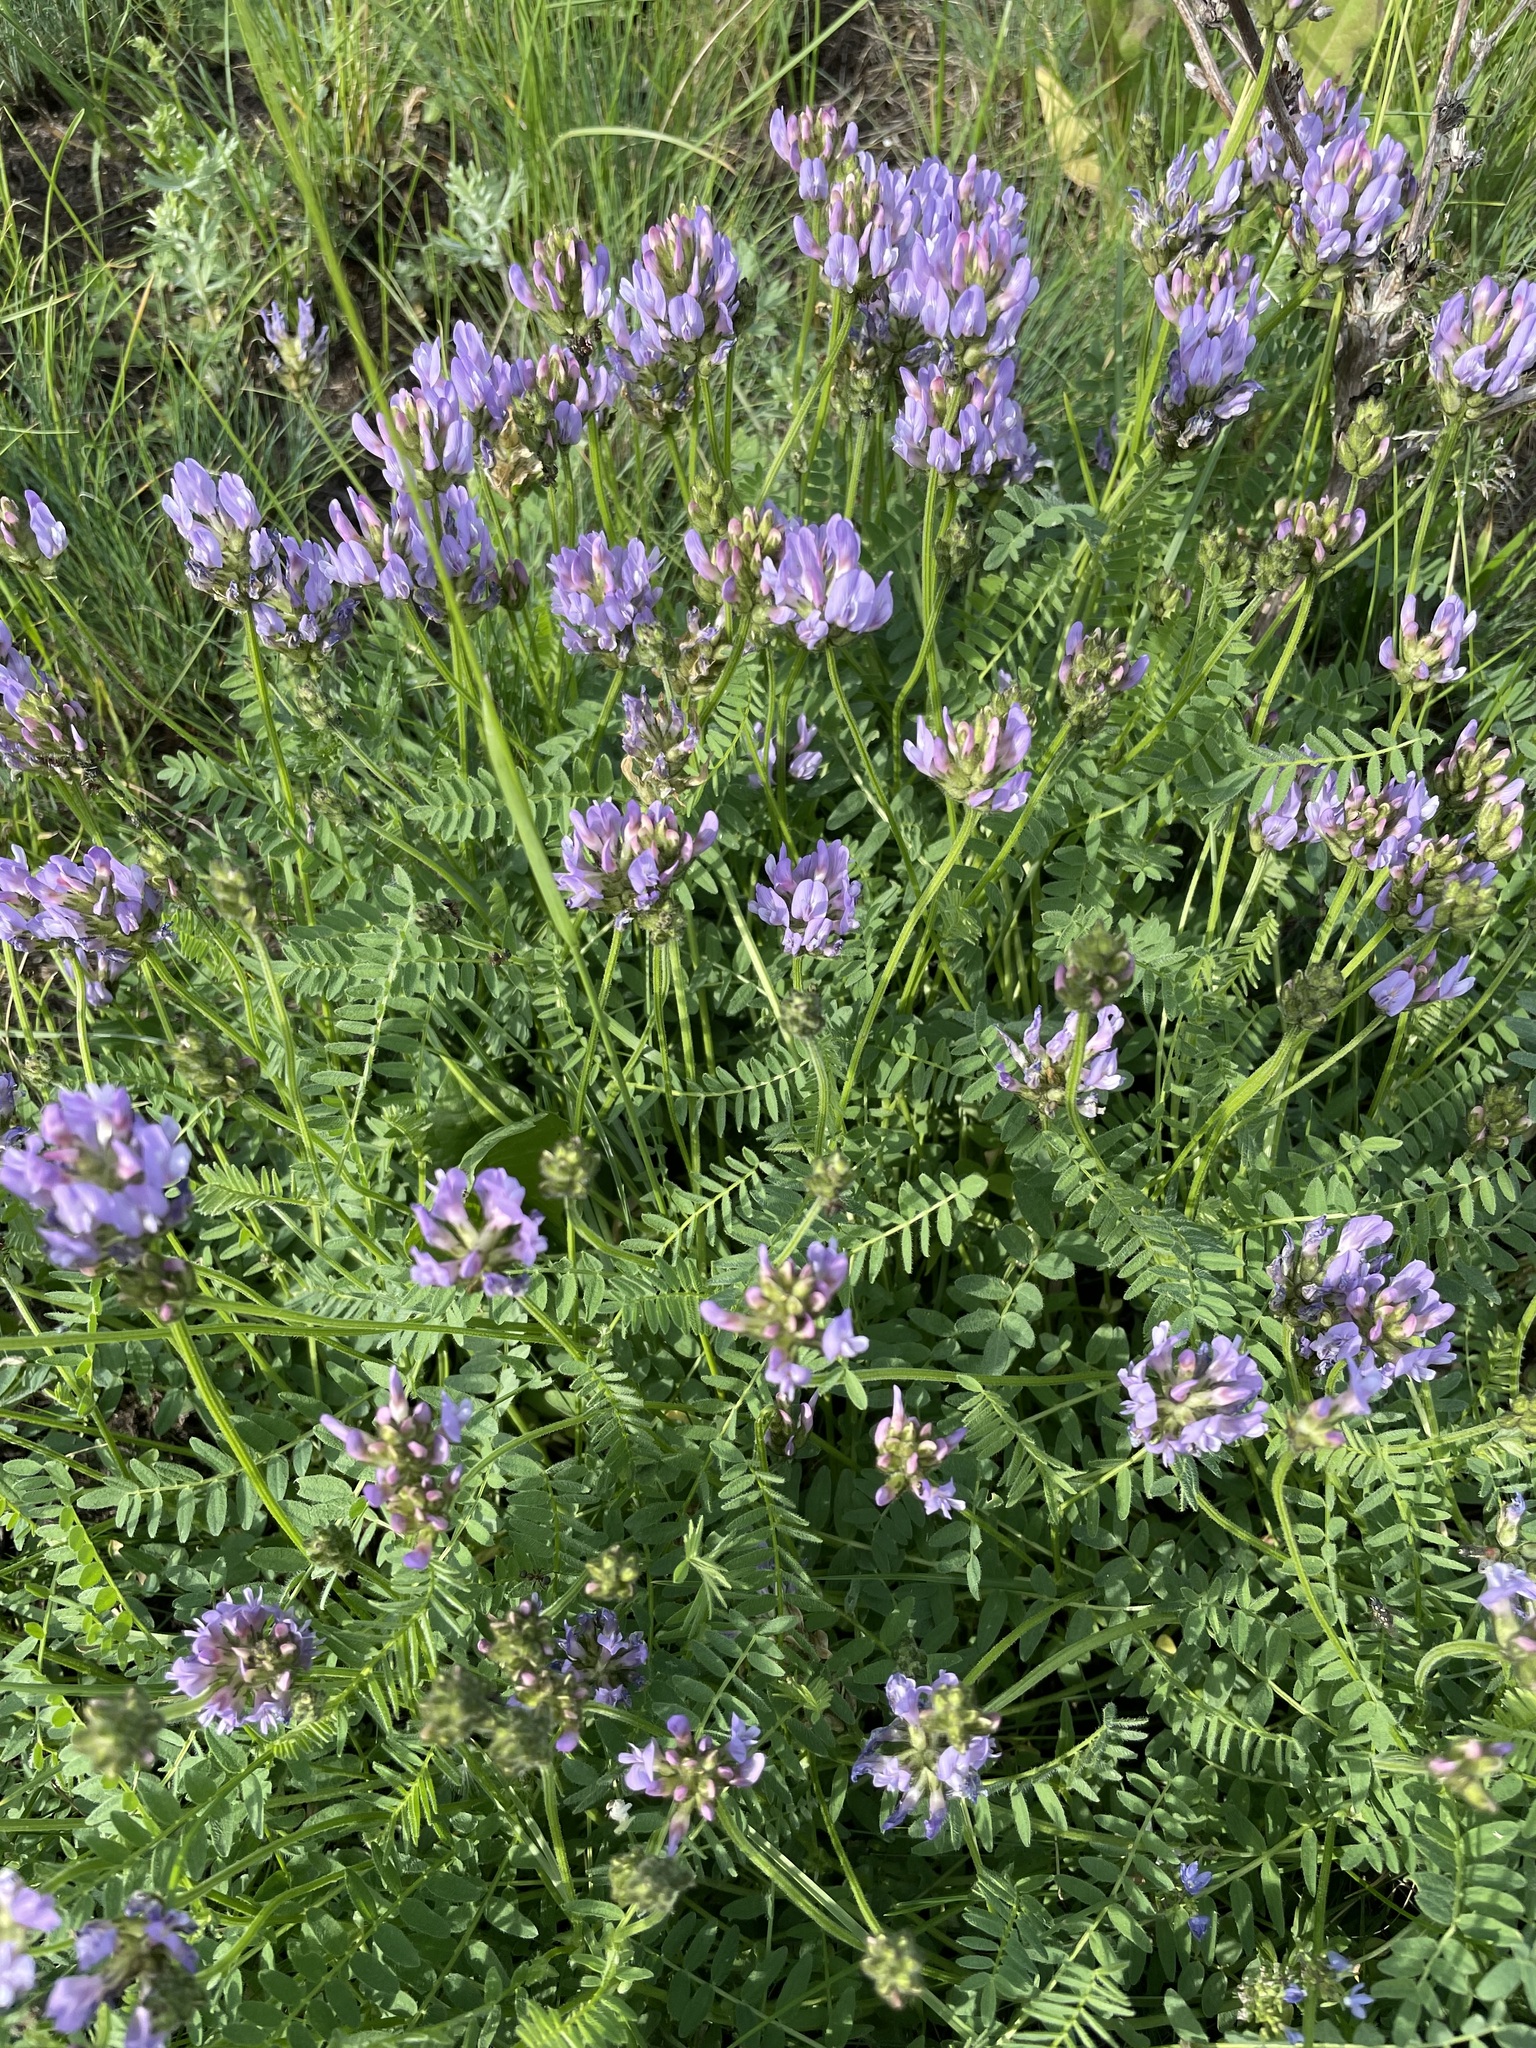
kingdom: Plantae
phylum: Tracheophyta
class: Magnoliopsida
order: Fabales
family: Fabaceae
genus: Astragalus
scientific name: Astragalus danicus
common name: Purple milk-vetch
